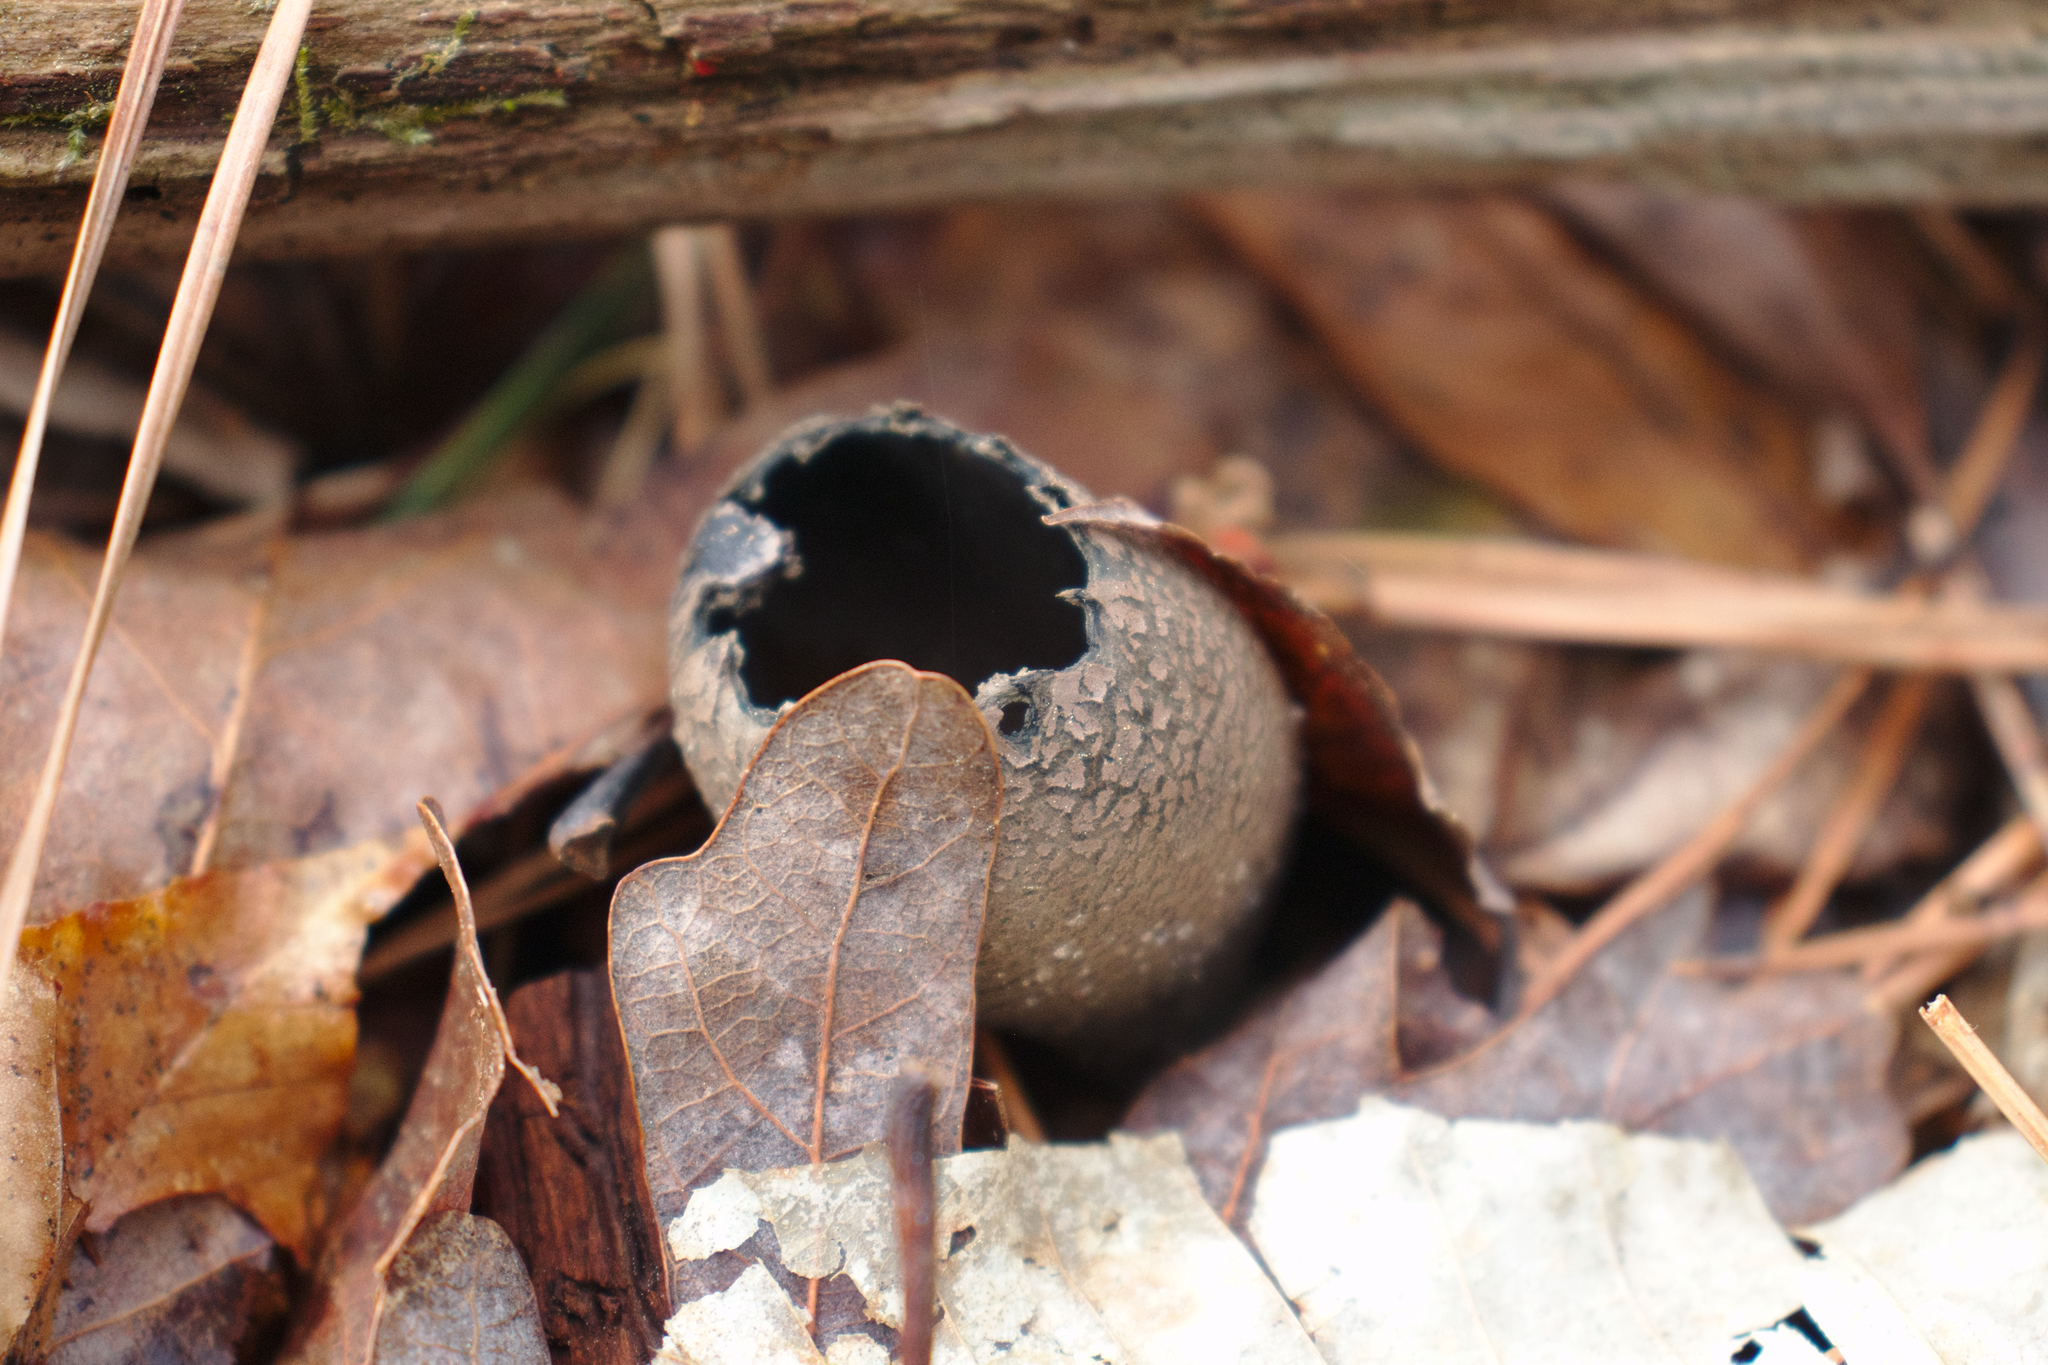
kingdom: Fungi
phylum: Ascomycota
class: Pezizomycetes
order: Pezizales
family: Sarcosomataceae
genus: Urnula
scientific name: Urnula craterium
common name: Devil's urn
